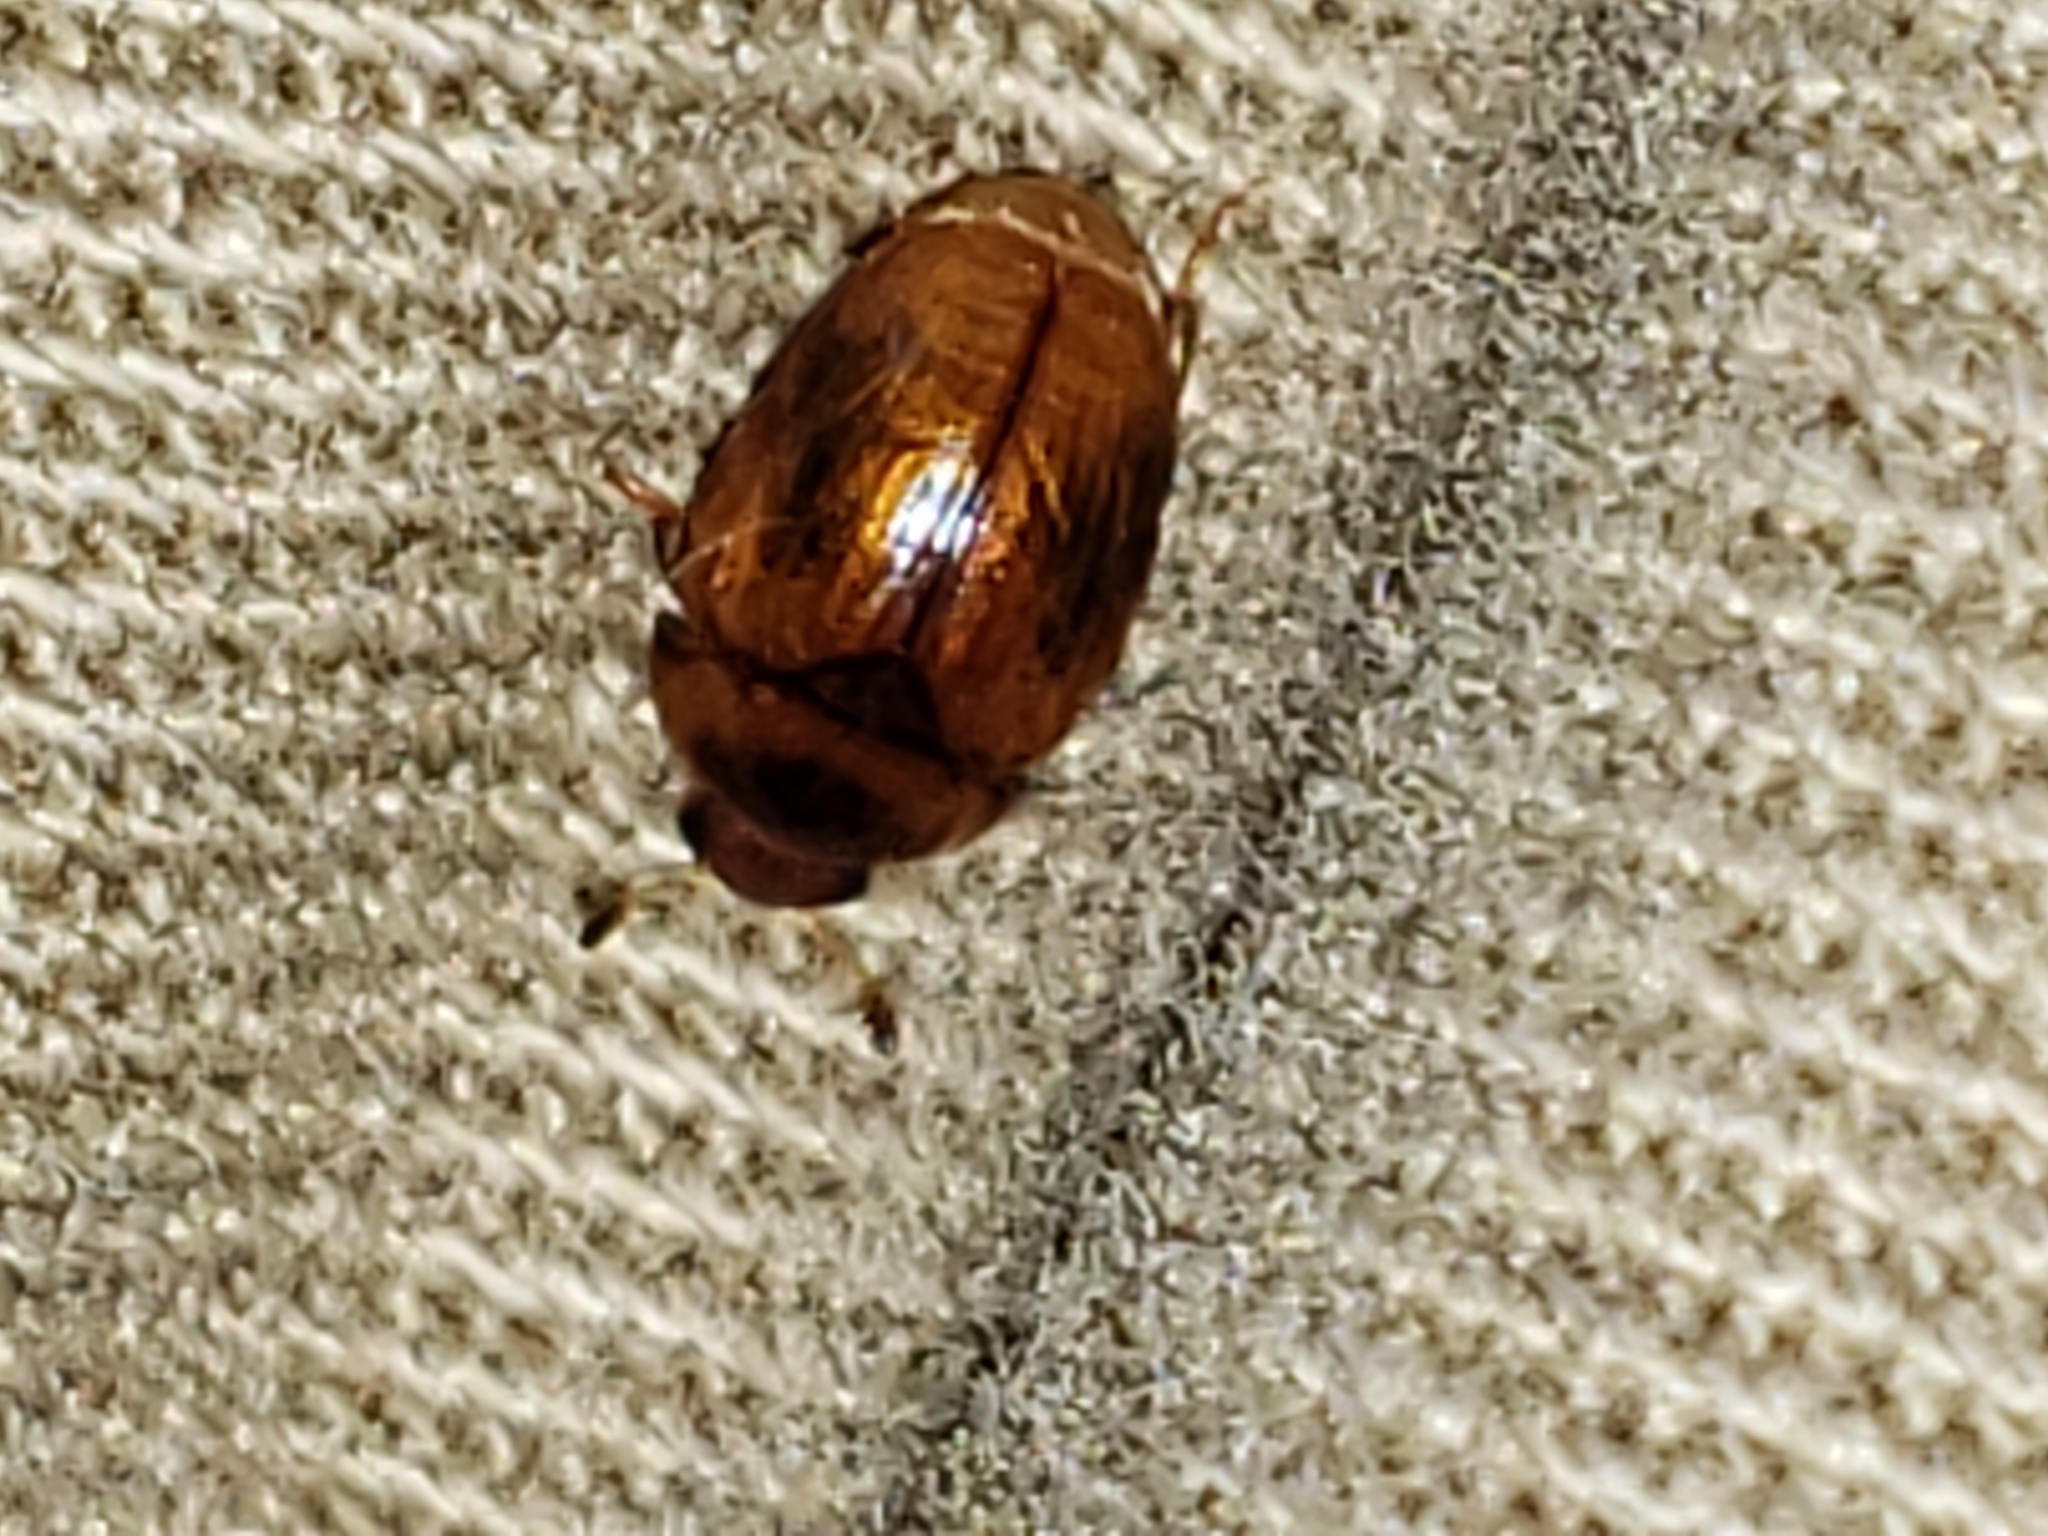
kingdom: Animalia
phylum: Arthropoda
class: Insecta
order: Coleoptera
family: Nitidulidae
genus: Pallodes
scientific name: Pallodes pallidus
